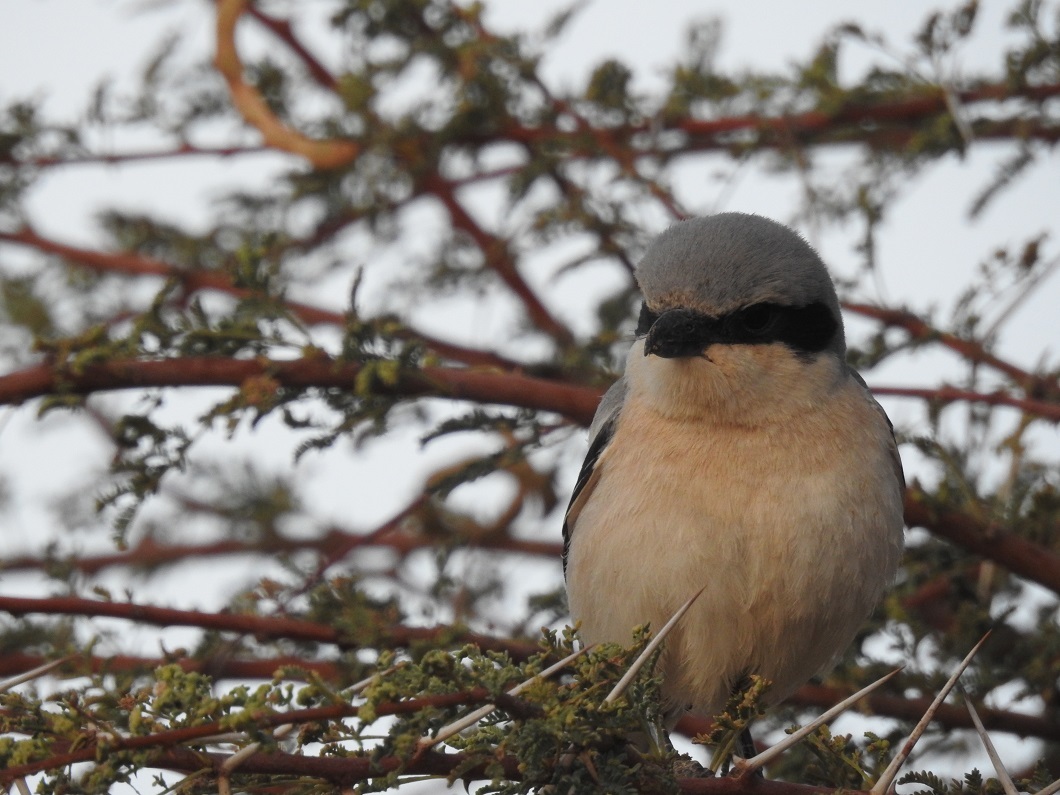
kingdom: Animalia
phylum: Chordata
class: Aves
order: Passeriformes
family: Laniidae
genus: Lanius
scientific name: Lanius excubitor
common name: Great grey shrike
